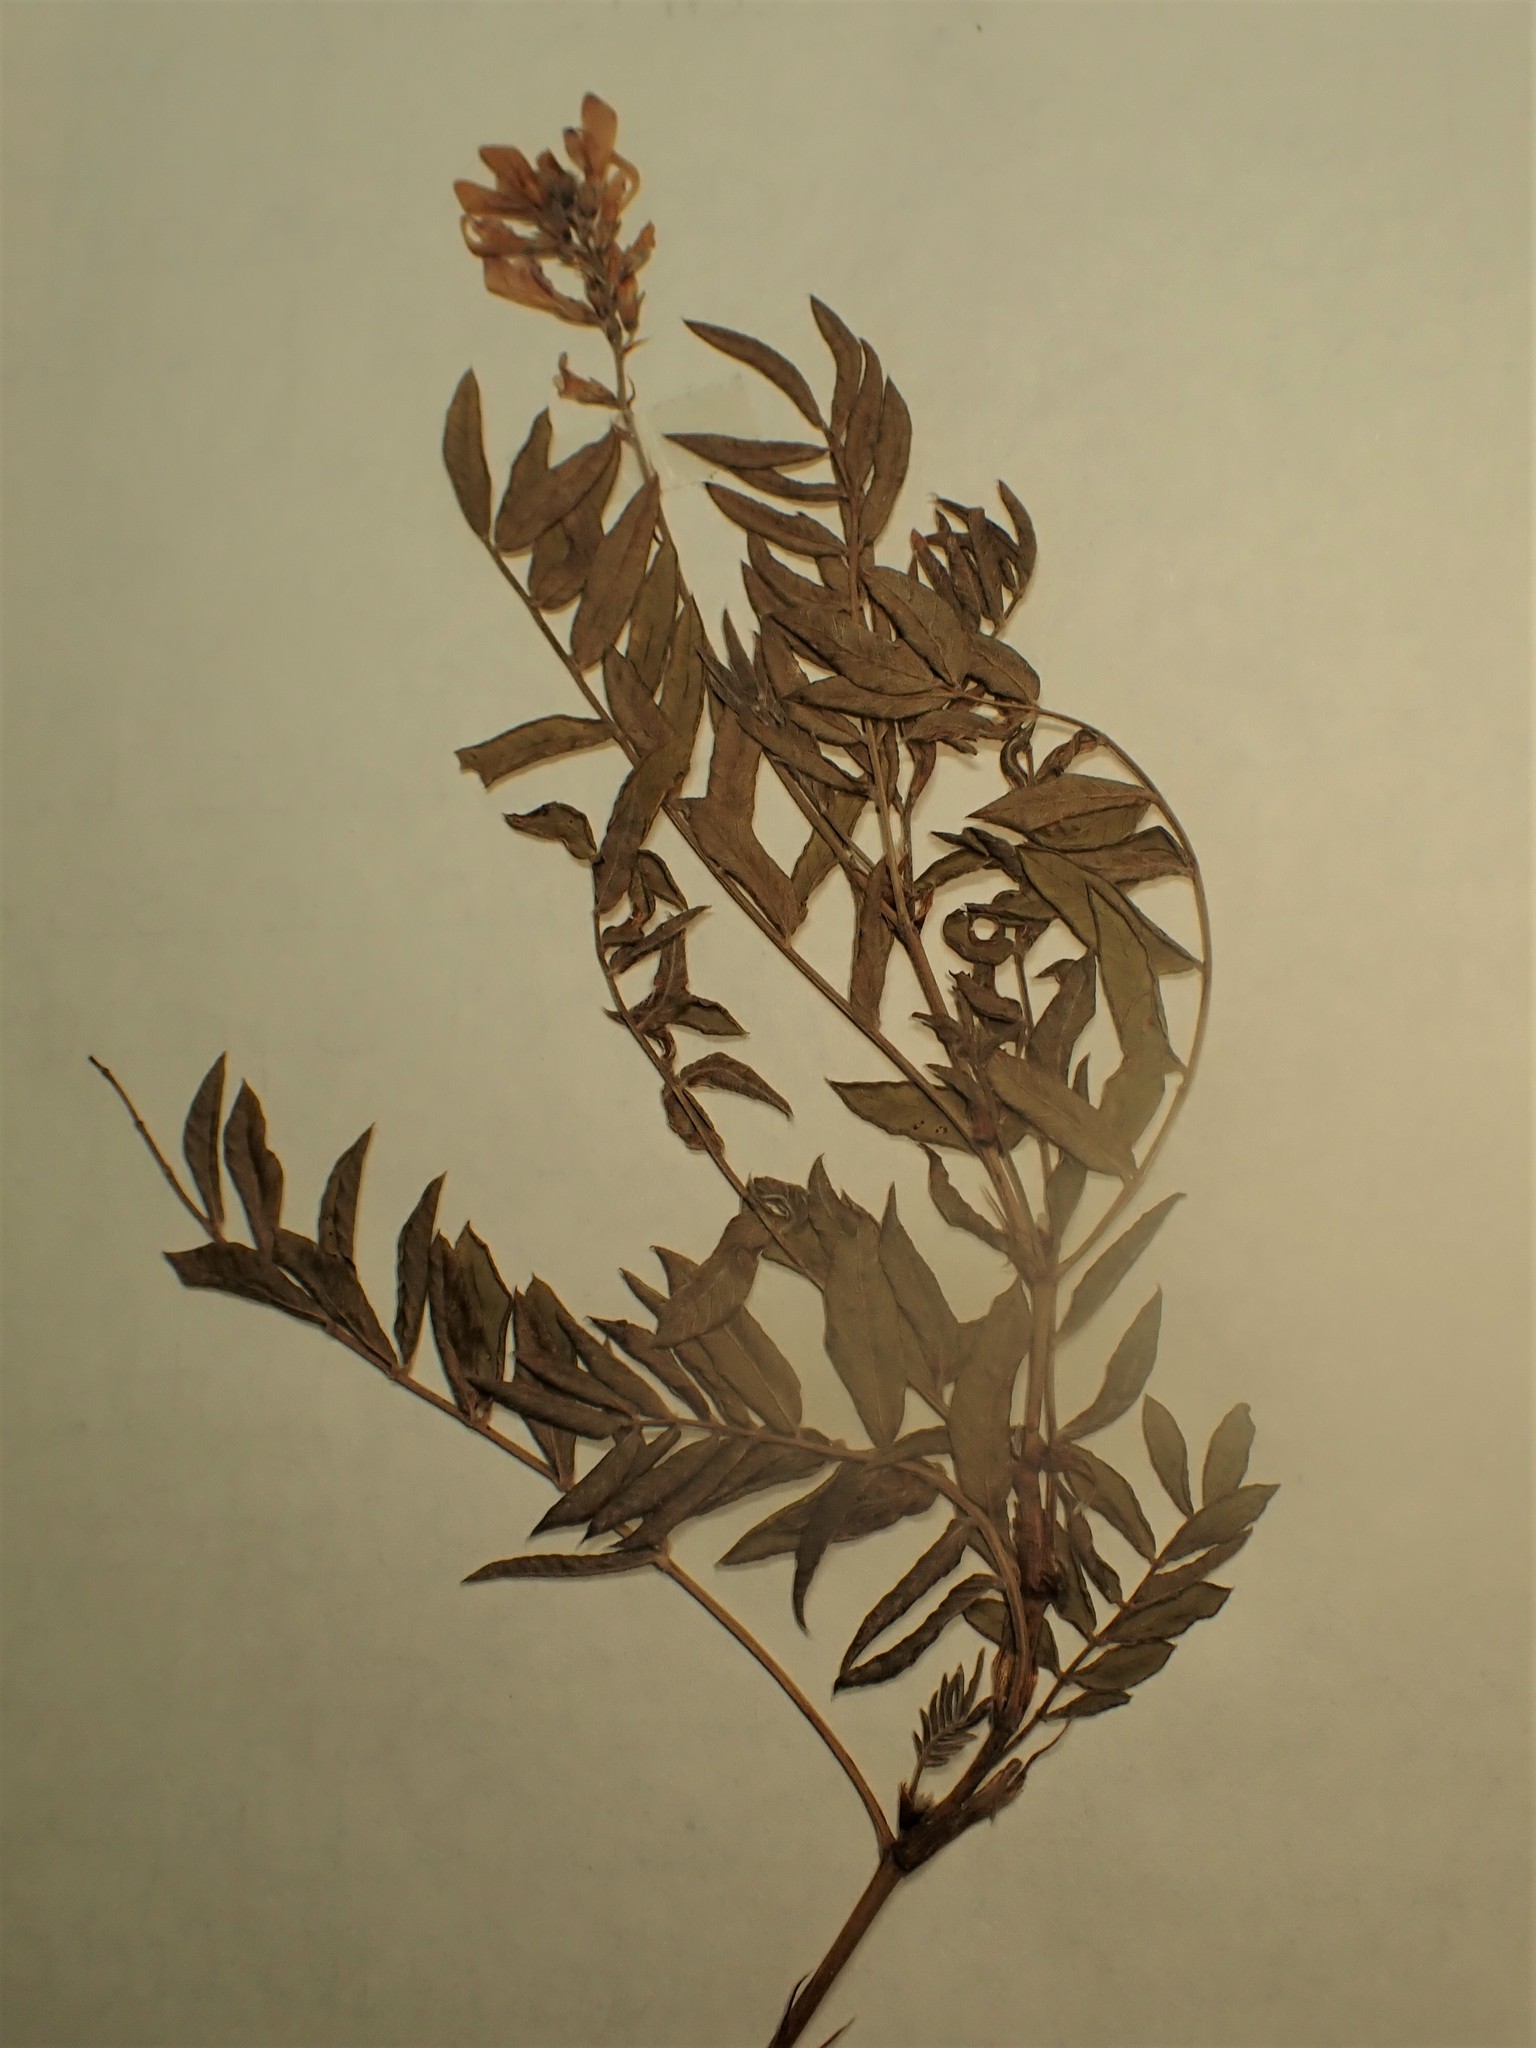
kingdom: Plantae
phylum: Tracheophyta
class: Magnoliopsida
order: Fabales
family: Fabaceae
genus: Hedysarum
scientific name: Hedysarum
